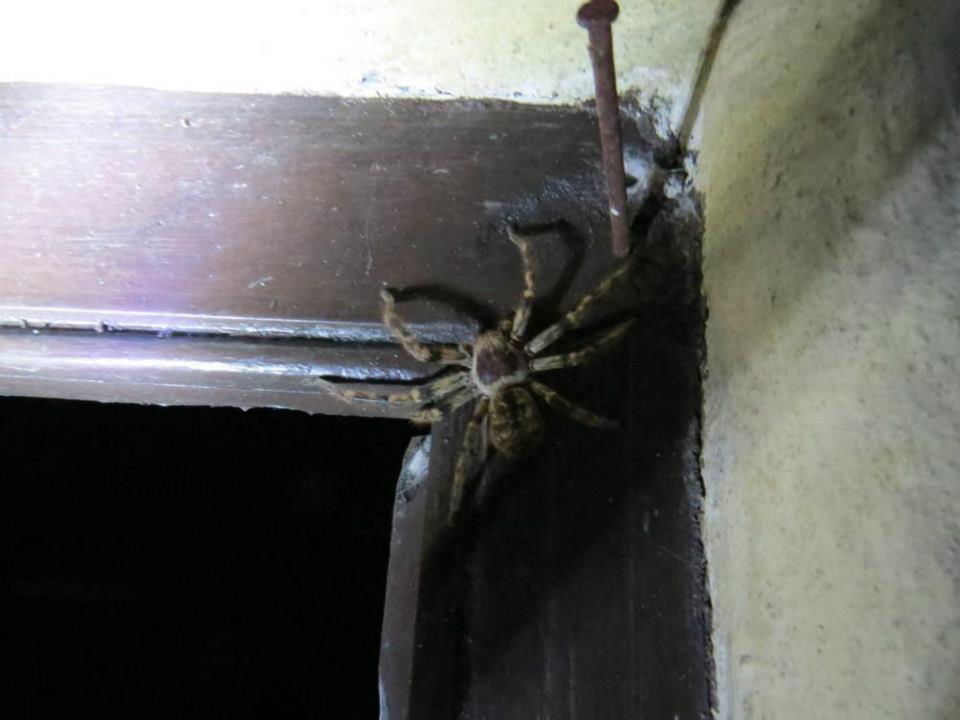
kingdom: Animalia
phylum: Arthropoda
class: Arachnida
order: Araneae
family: Sparassidae
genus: Polybetes
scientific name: Polybetes pythagoricus
